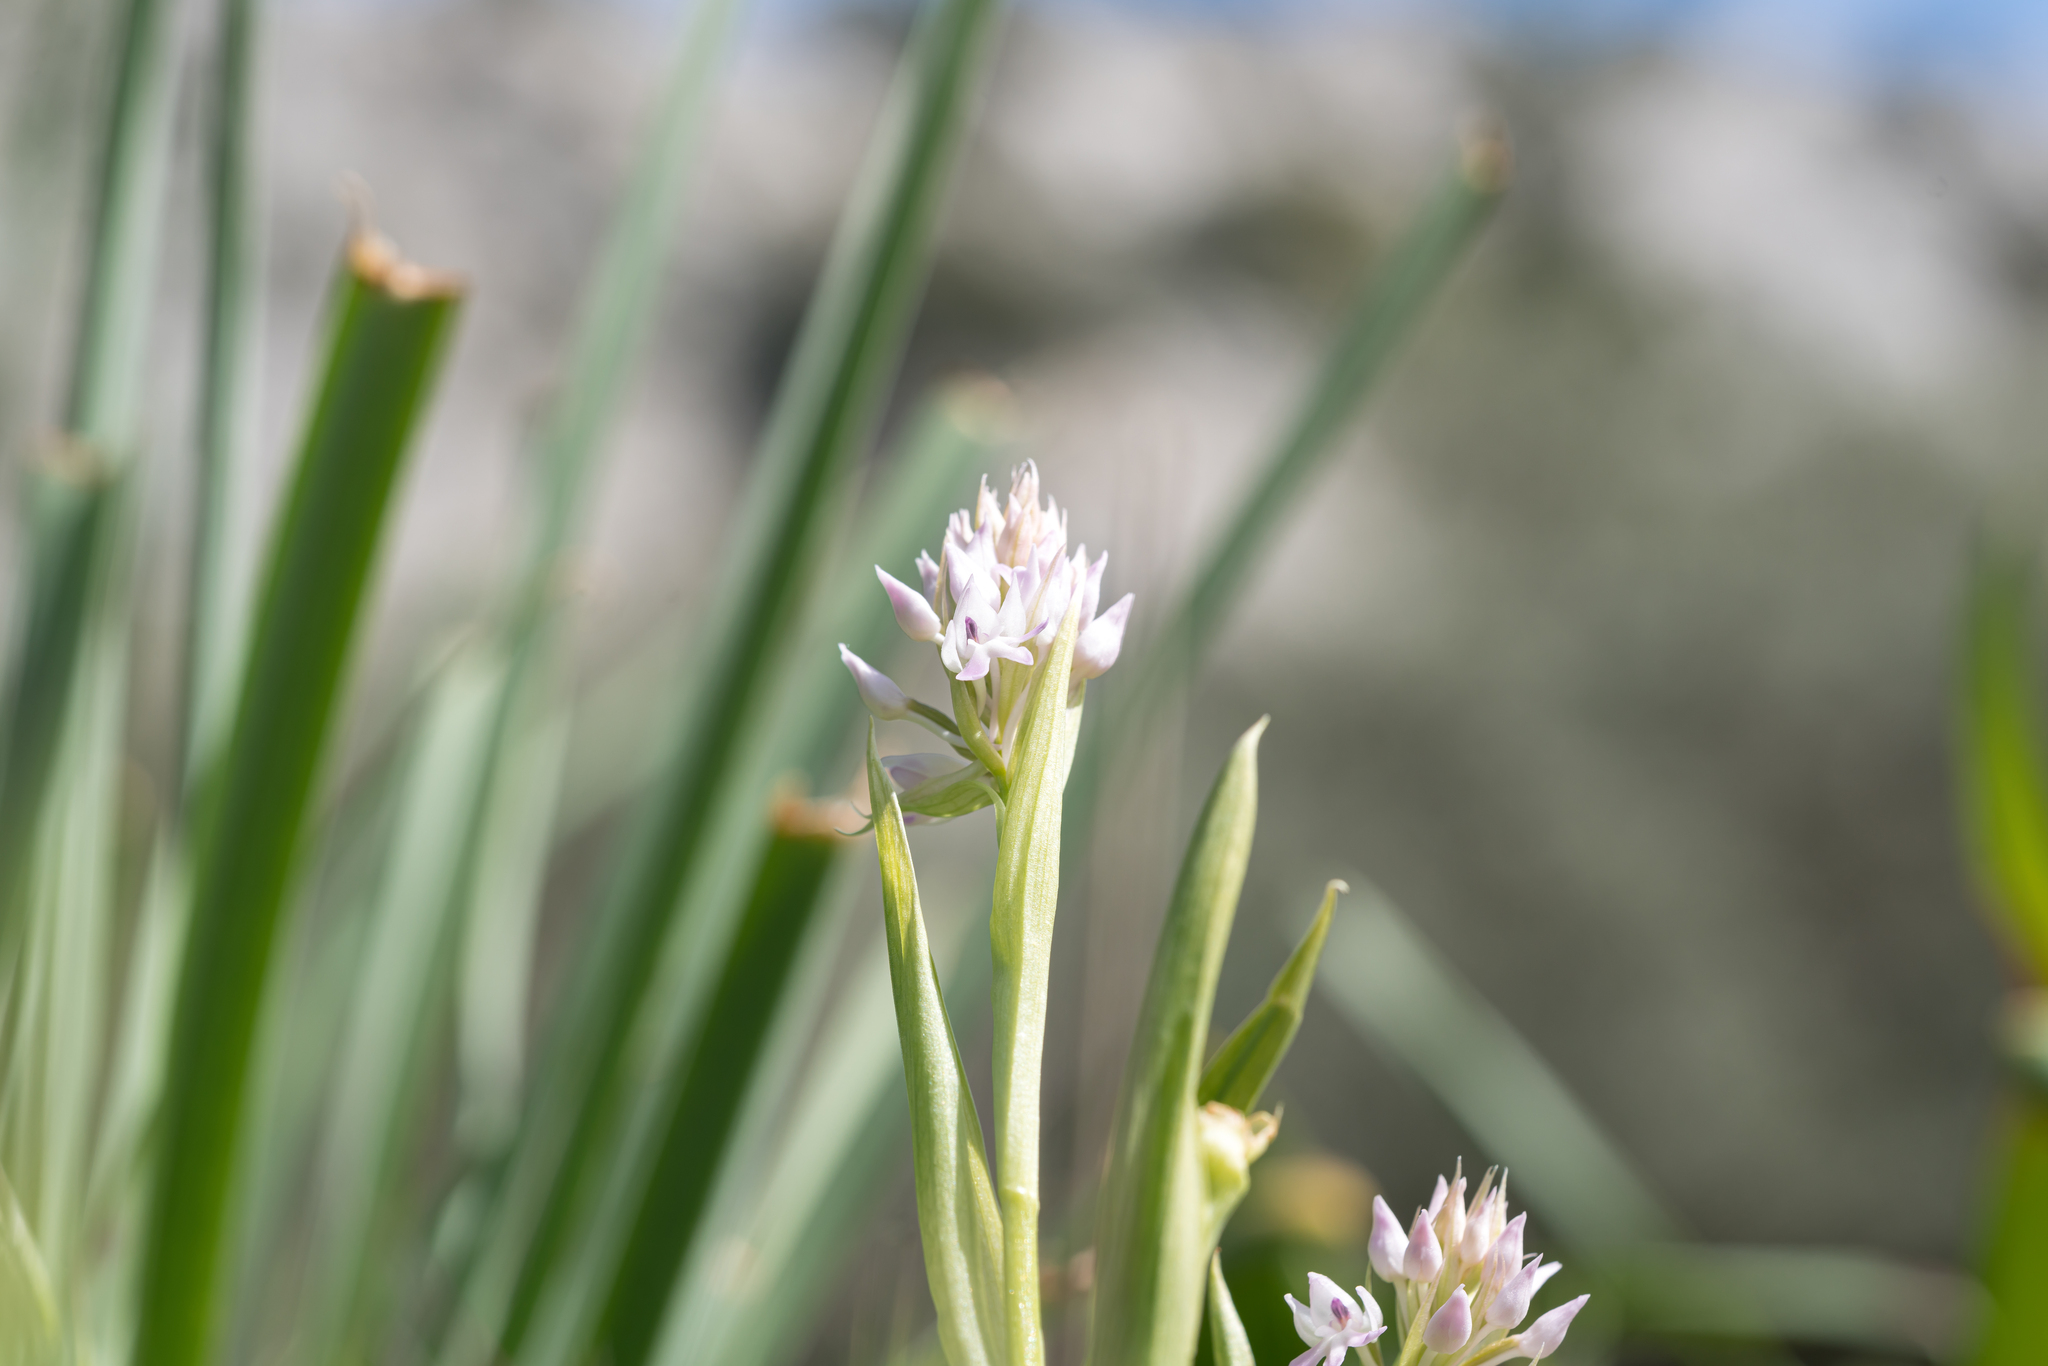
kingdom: Plantae
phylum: Tracheophyta
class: Liliopsida
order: Asparagales
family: Orchidaceae
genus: Anacamptis
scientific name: Anacamptis pyramidalis
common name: Pyramidal orchid
